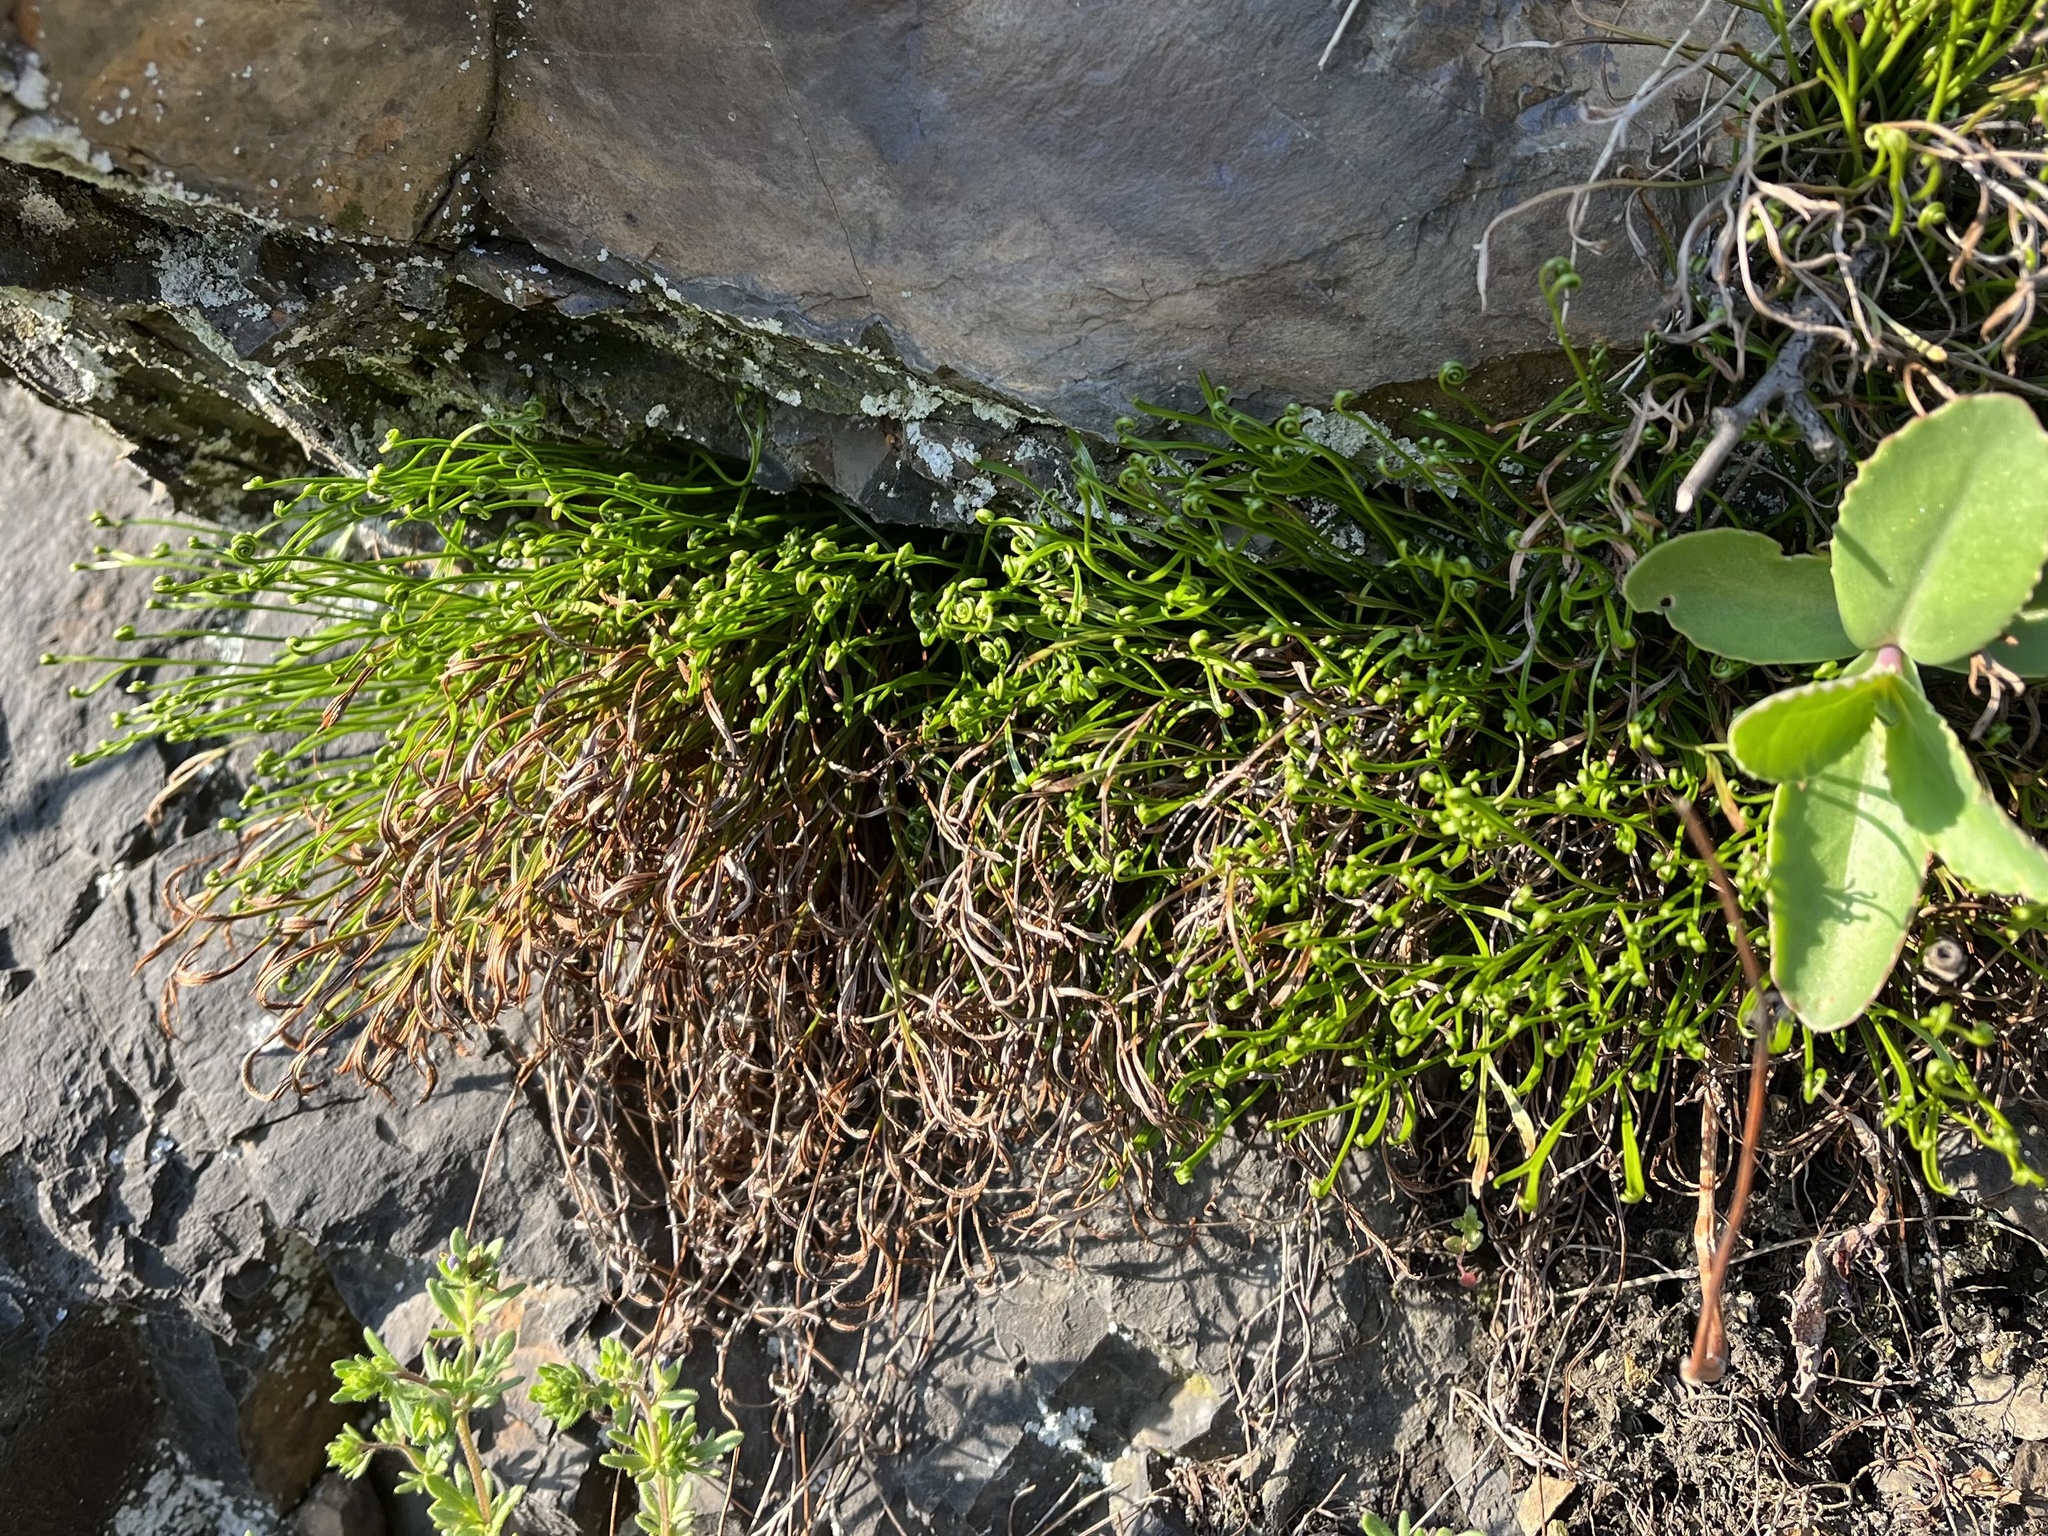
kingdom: Plantae
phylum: Tracheophyta
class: Polypodiopsida
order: Polypodiales
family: Aspleniaceae
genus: Asplenium
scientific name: Asplenium septentrionale
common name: Forked spleenwort
